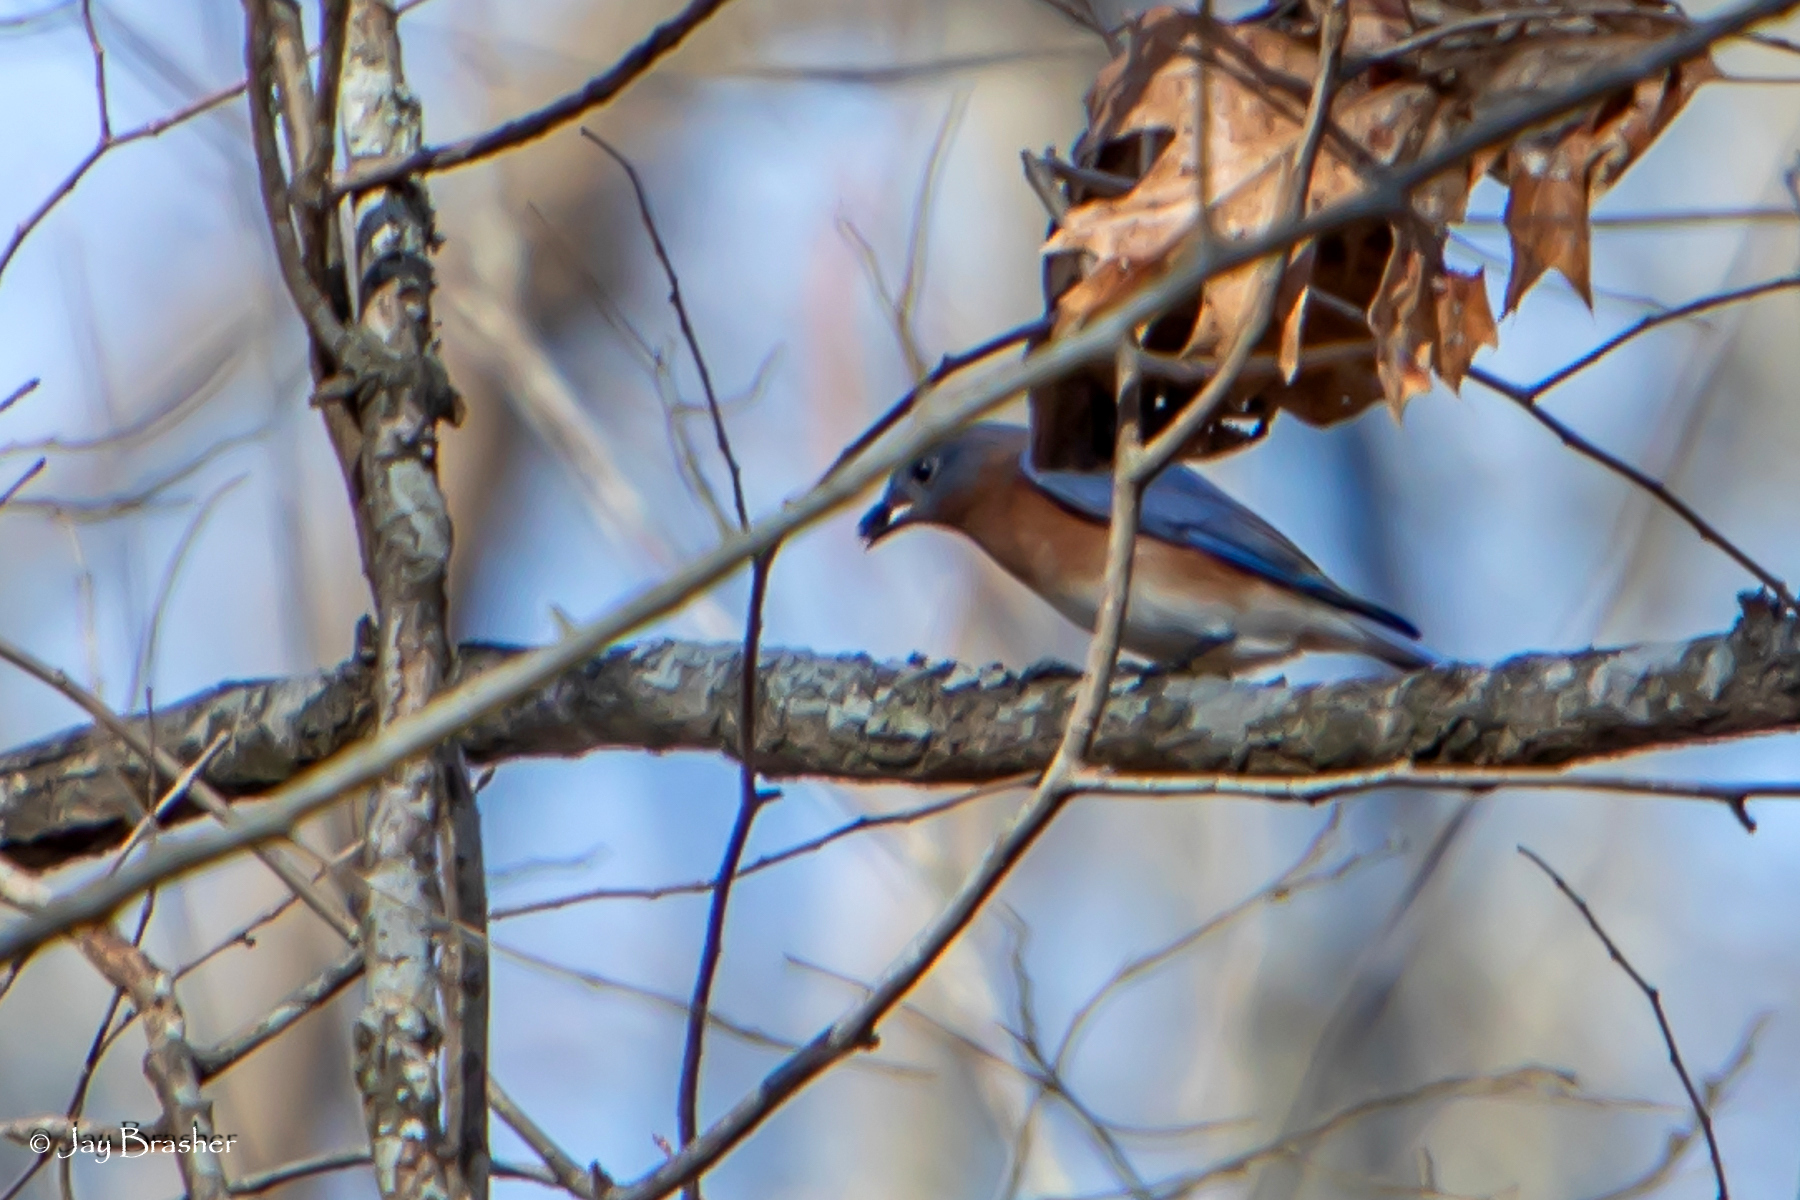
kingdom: Animalia
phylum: Chordata
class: Aves
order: Passeriformes
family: Turdidae
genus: Sialia
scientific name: Sialia sialis
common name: Eastern bluebird
